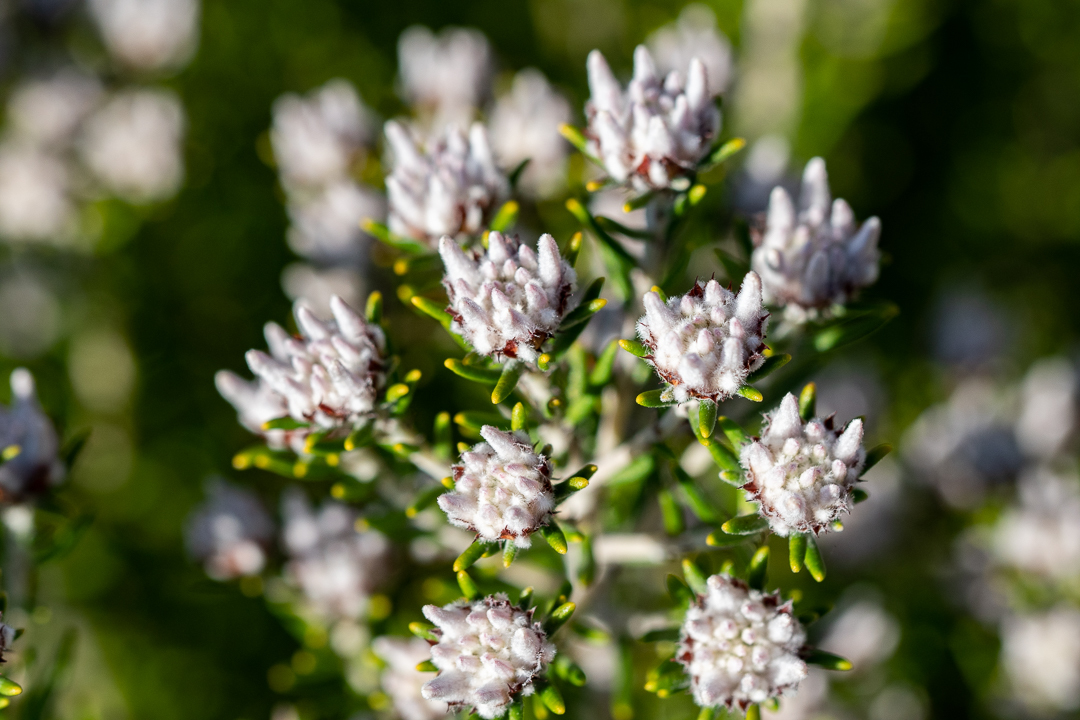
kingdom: Plantae
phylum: Tracheophyta
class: Magnoliopsida
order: Rosales
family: Rhamnaceae
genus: Trichocephalus
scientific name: Trichocephalus stipularis
